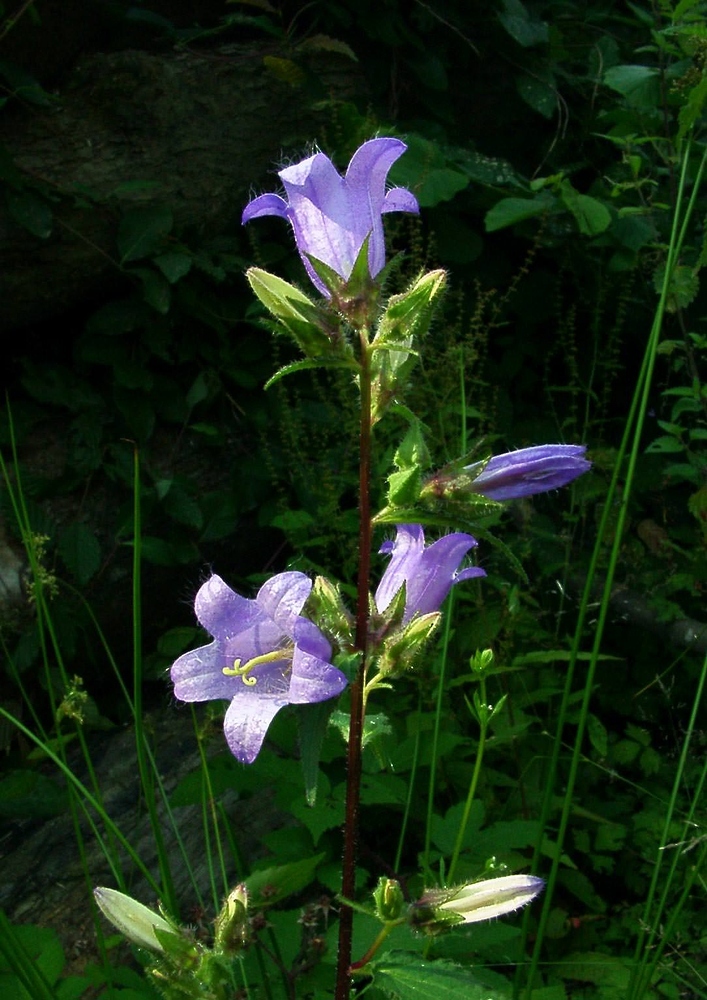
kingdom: Plantae
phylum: Tracheophyta
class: Magnoliopsida
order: Asterales
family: Campanulaceae
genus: Campanula
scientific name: Campanula trachelium
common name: Nettle-leaved bellflower
